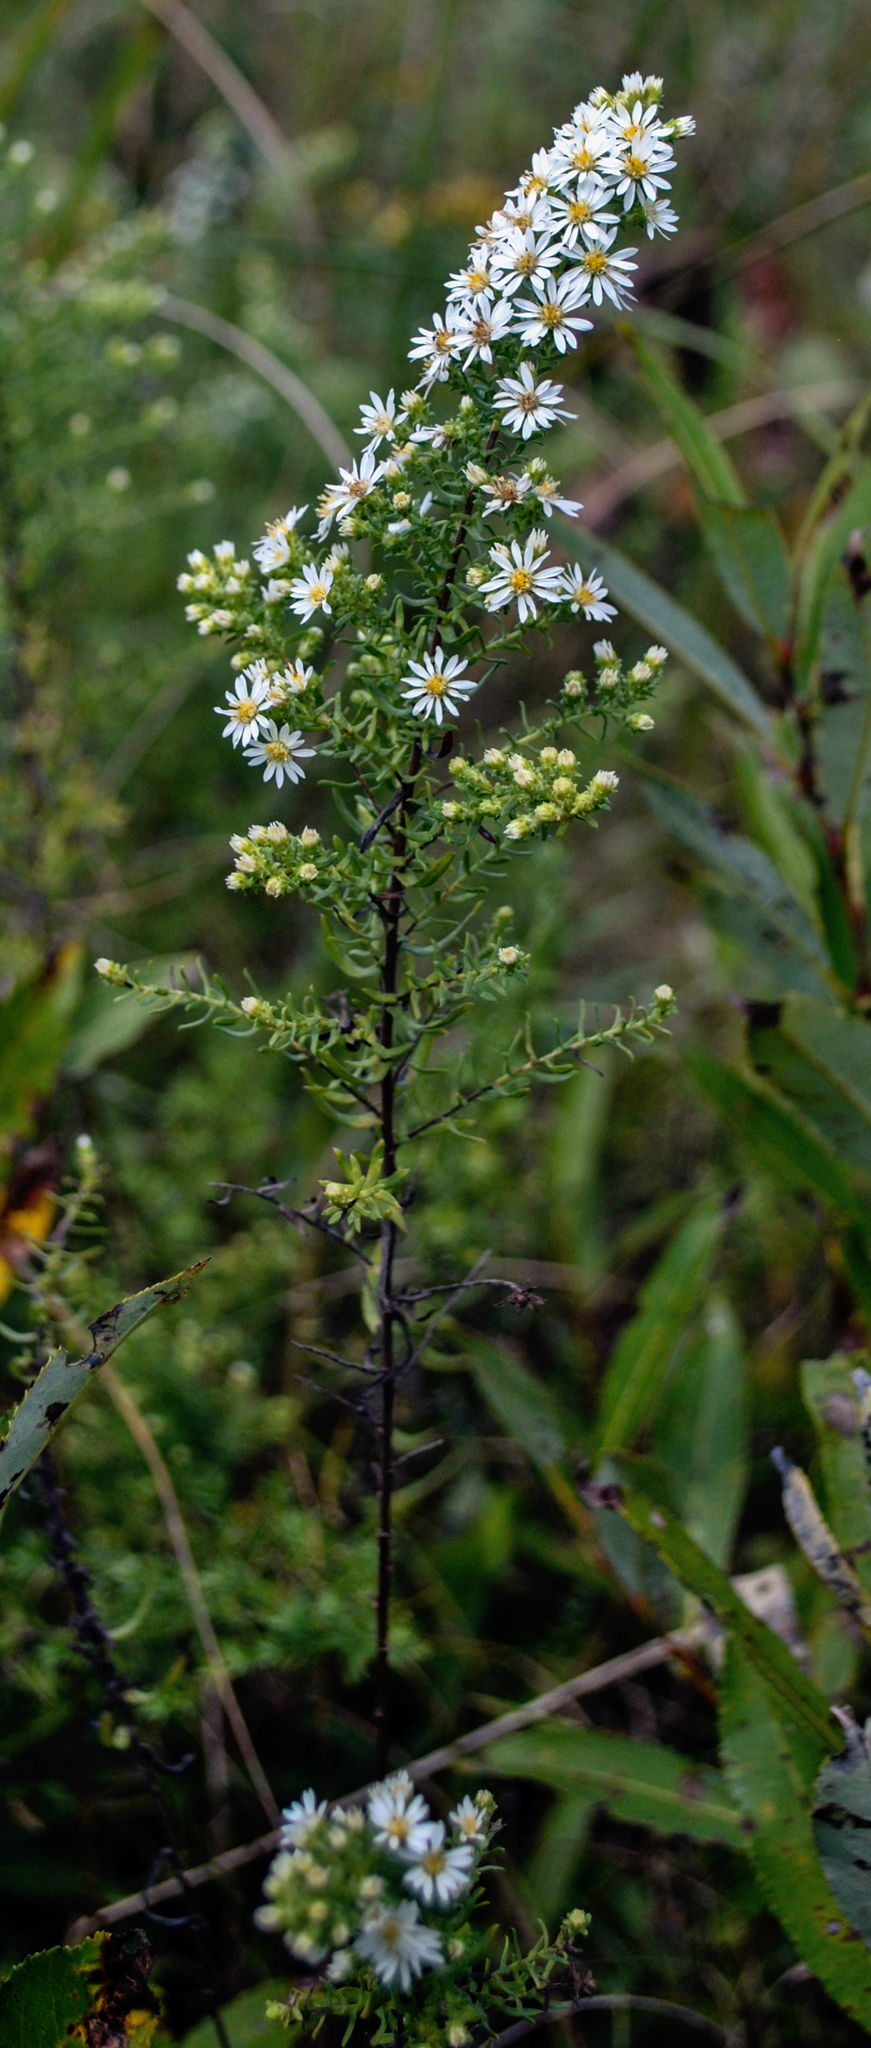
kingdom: Plantae
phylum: Tracheophyta
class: Magnoliopsida
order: Asterales
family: Asteraceae
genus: Symphyotrichum
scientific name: Symphyotrichum ericoides
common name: Heath aster
